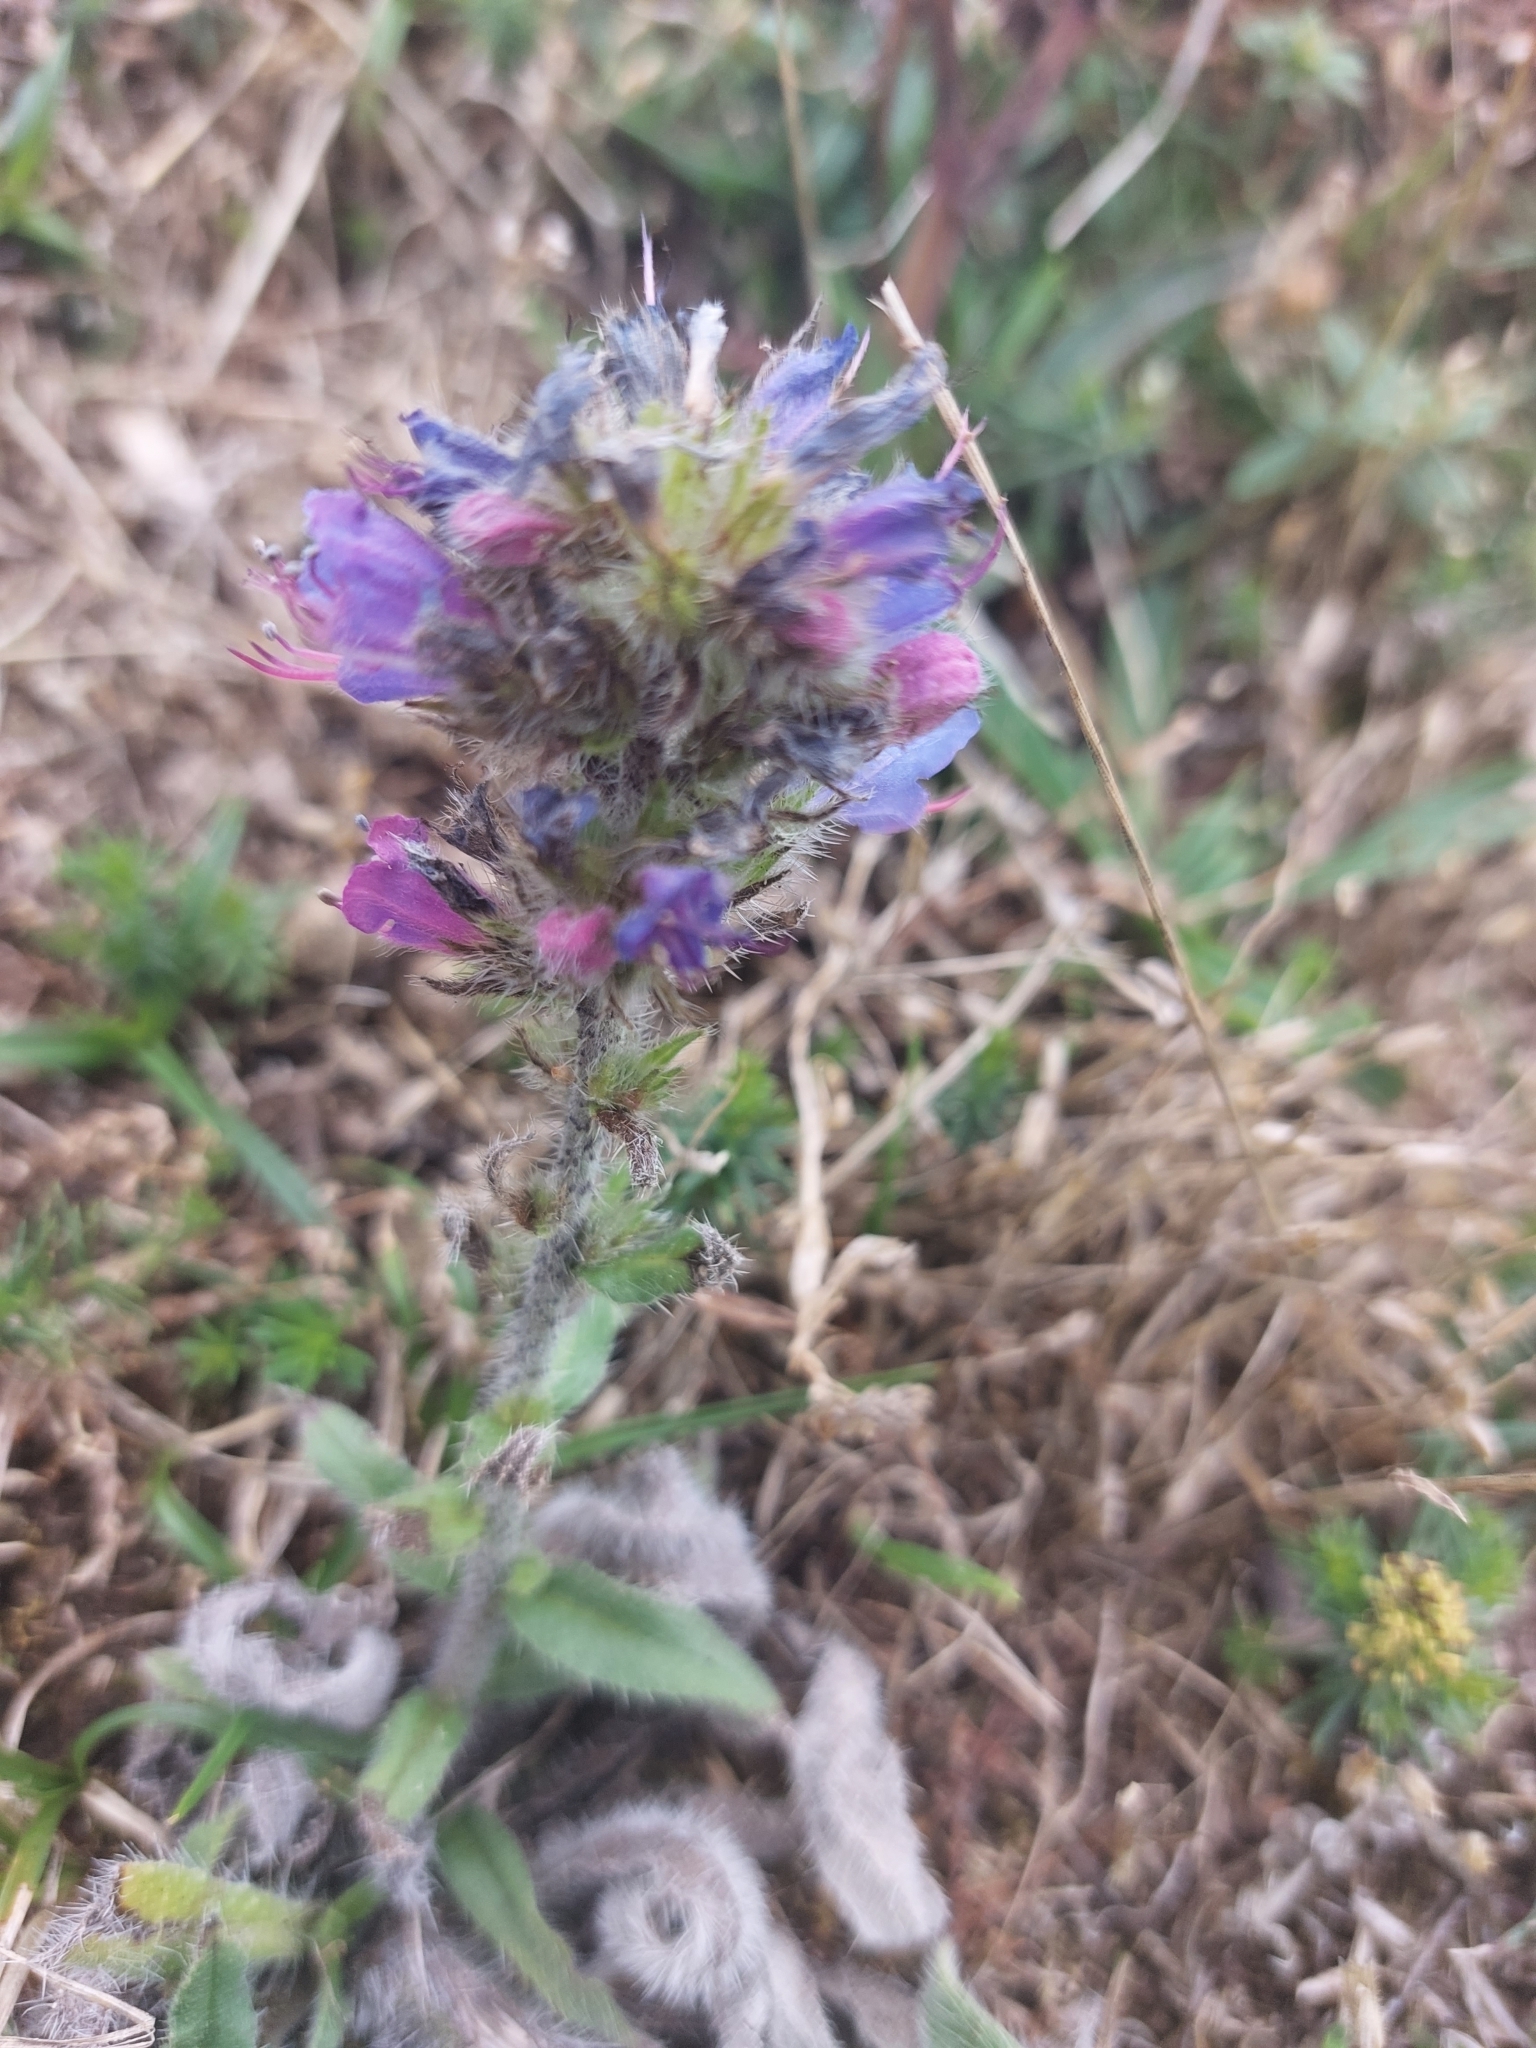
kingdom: Plantae
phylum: Tracheophyta
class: Magnoliopsida
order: Boraginales
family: Boraginaceae
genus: Echium
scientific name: Echium vulgare
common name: Common viper's bugloss
